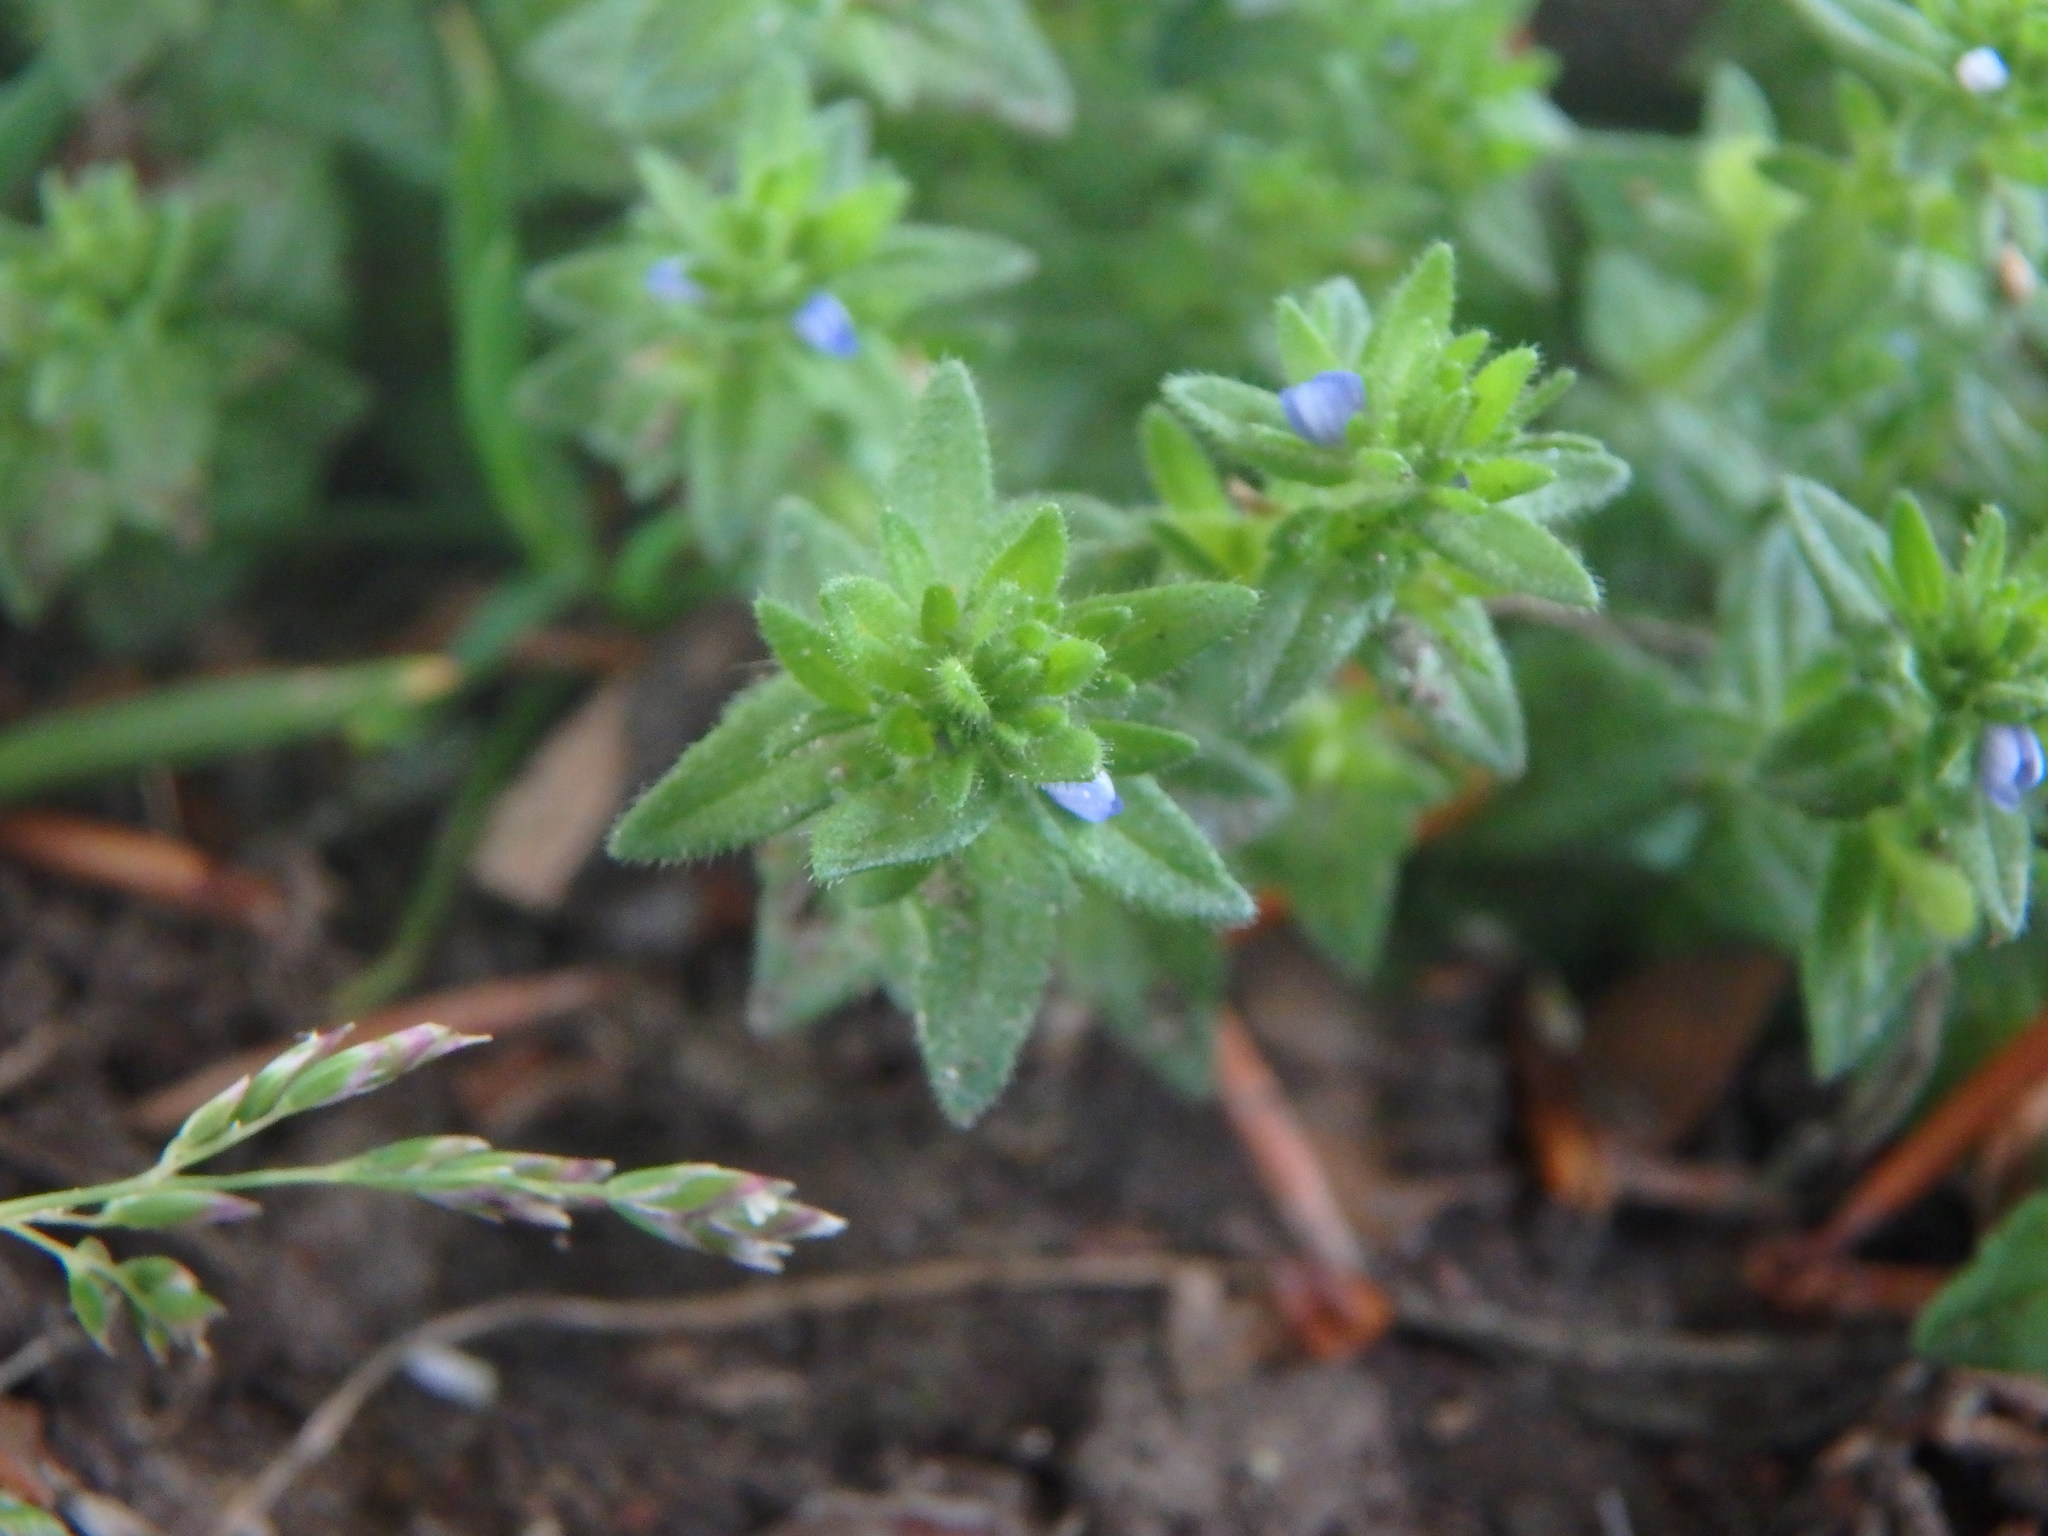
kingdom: Plantae
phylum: Tracheophyta
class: Magnoliopsida
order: Lamiales
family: Plantaginaceae
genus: Veronica
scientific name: Veronica arvensis
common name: Corn speedwell
